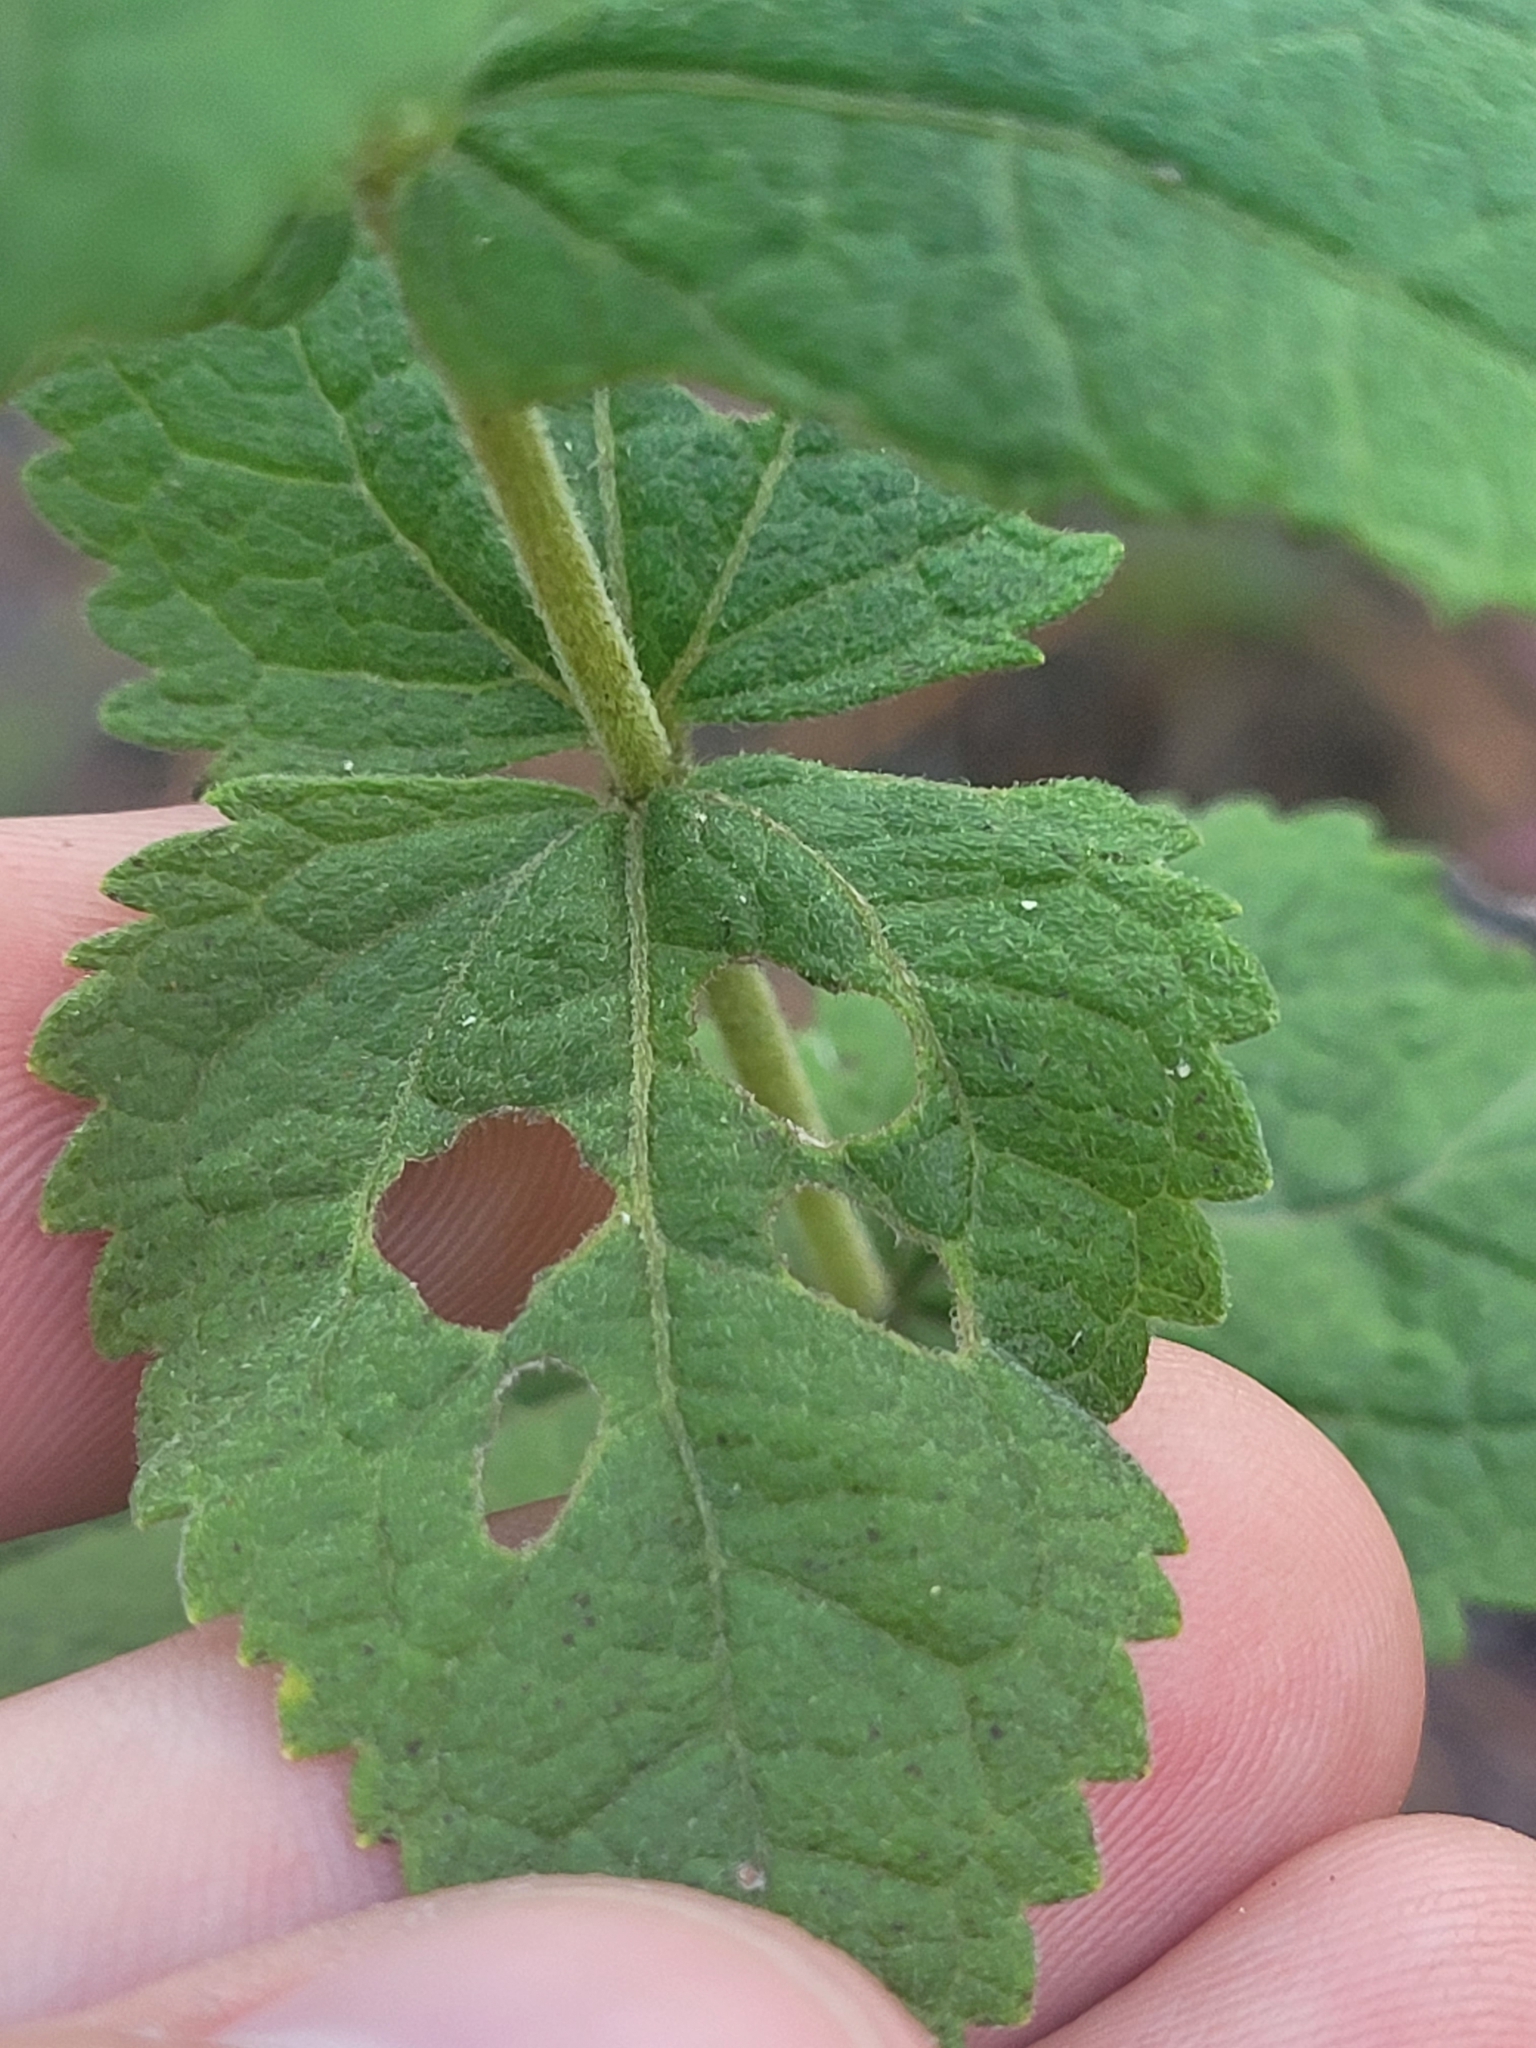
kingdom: Plantae
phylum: Tracheophyta
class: Magnoliopsida
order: Asterales
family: Asteraceae
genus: Eupatorium
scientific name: Eupatorium rotundifolium
